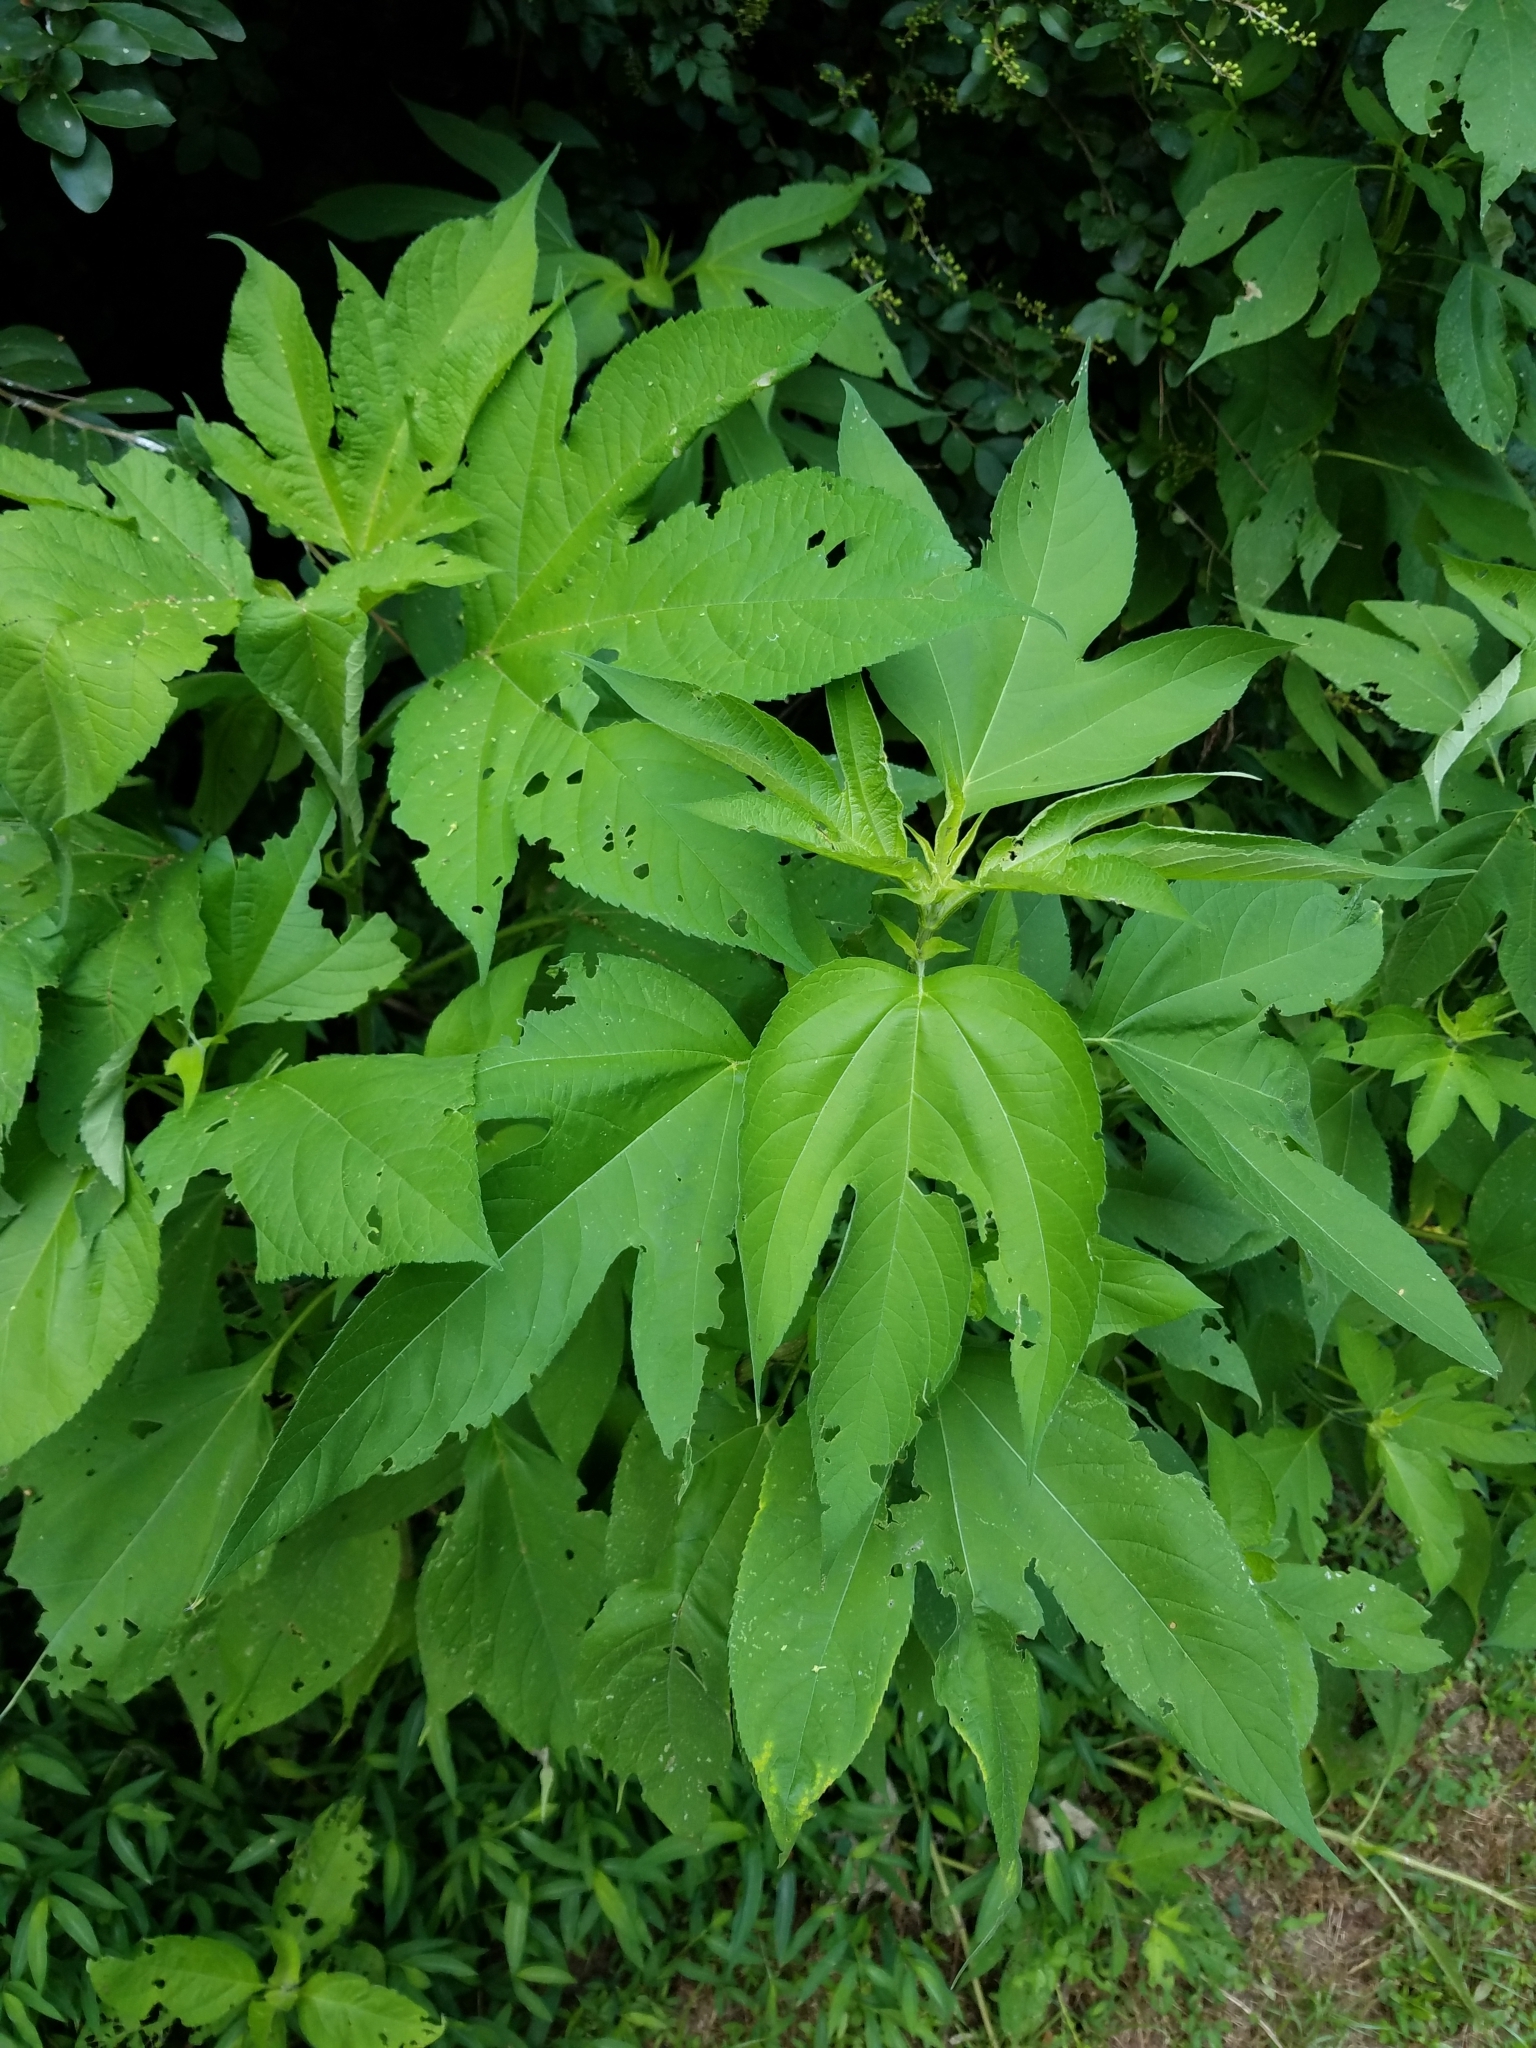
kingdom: Plantae
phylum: Tracheophyta
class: Magnoliopsida
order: Asterales
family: Asteraceae
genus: Ambrosia
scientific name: Ambrosia trifida
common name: Giant ragweed
